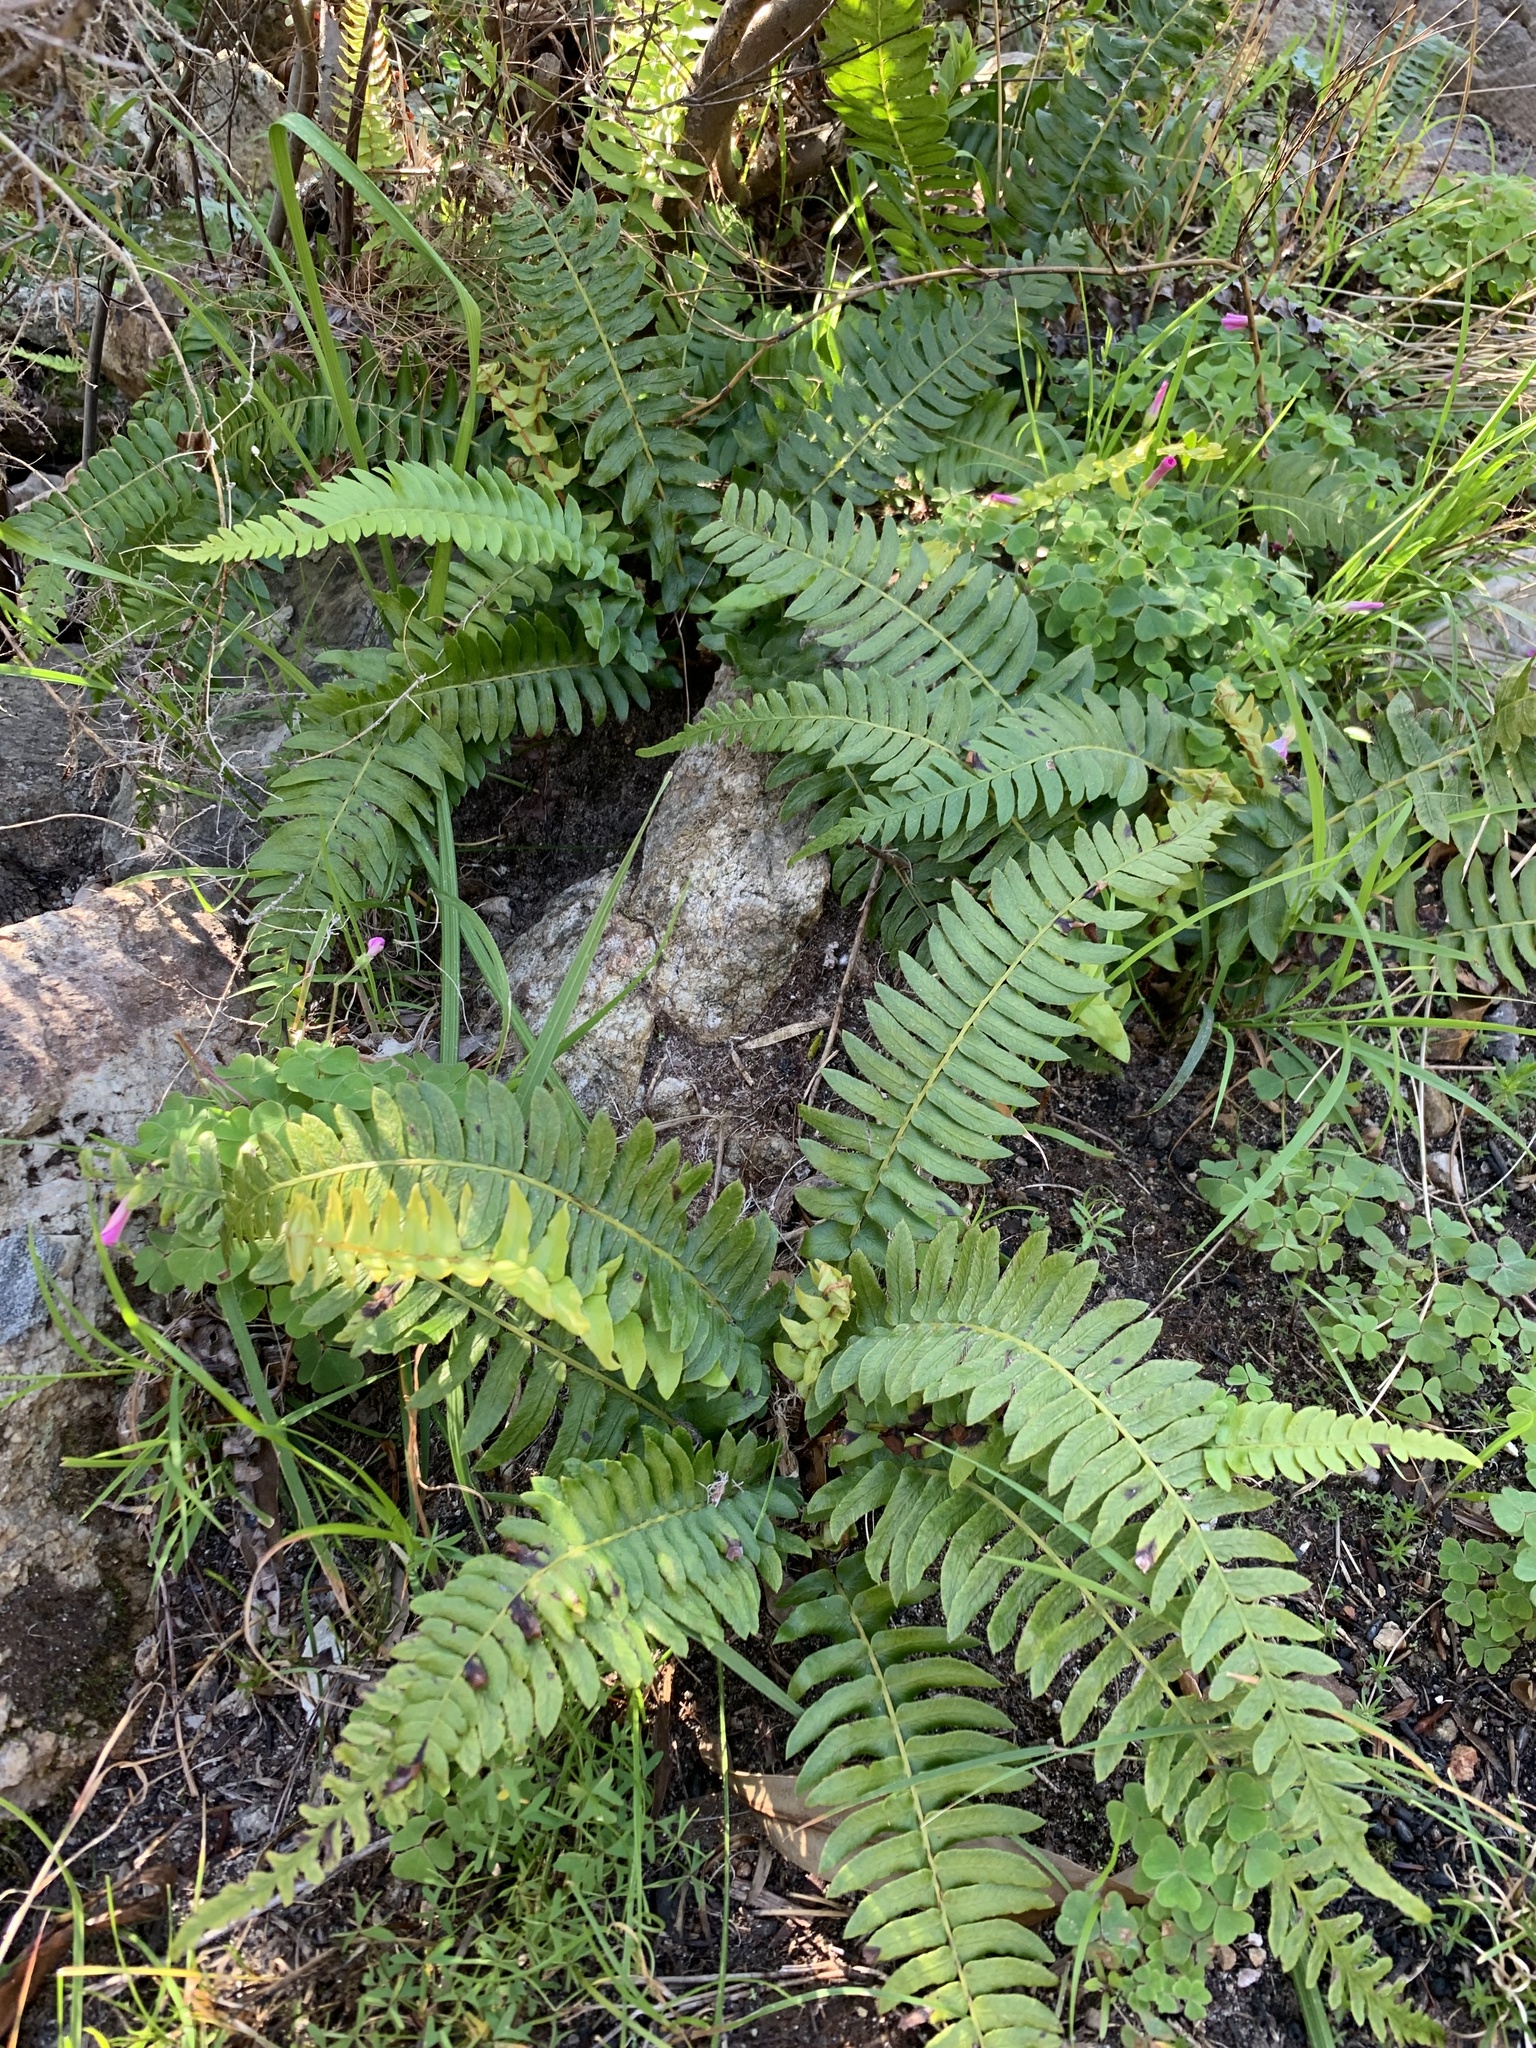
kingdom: Plantae
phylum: Tracheophyta
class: Polypodiopsida
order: Polypodiales
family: Blechnaceae
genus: Blechnum
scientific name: Blechnum australe
